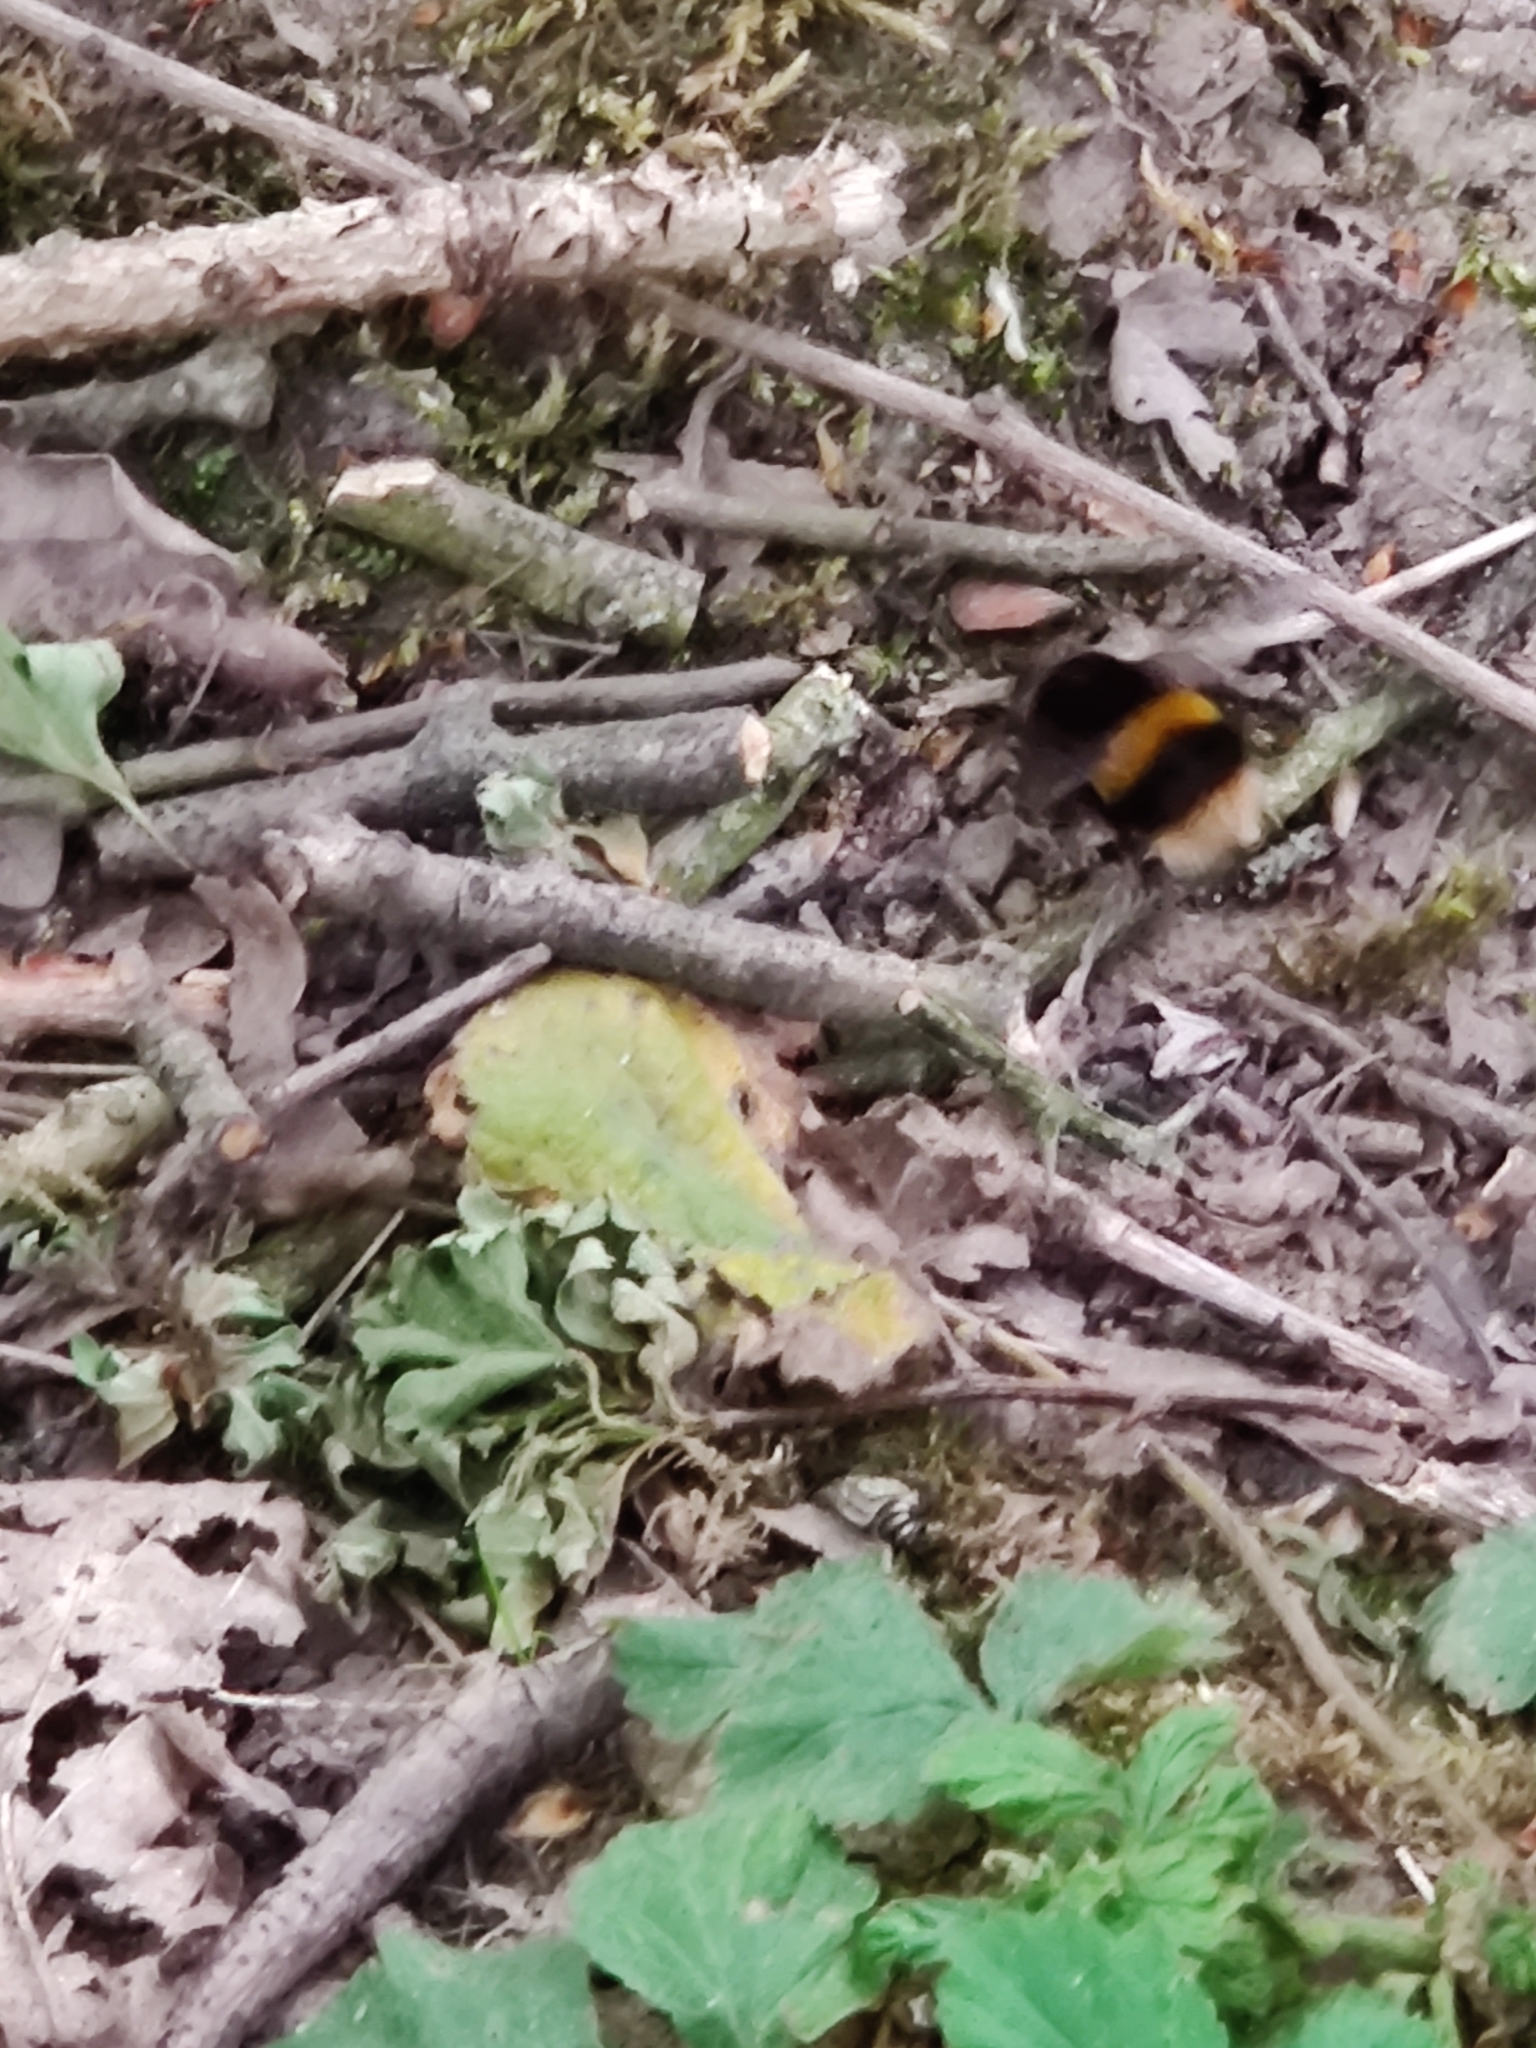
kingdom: Animalia
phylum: Arthropoda
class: Insecta
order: Hymenoptera
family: Apidae
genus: Bombus
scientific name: Bombus terrestris
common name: Buff-tailed bumblebee
